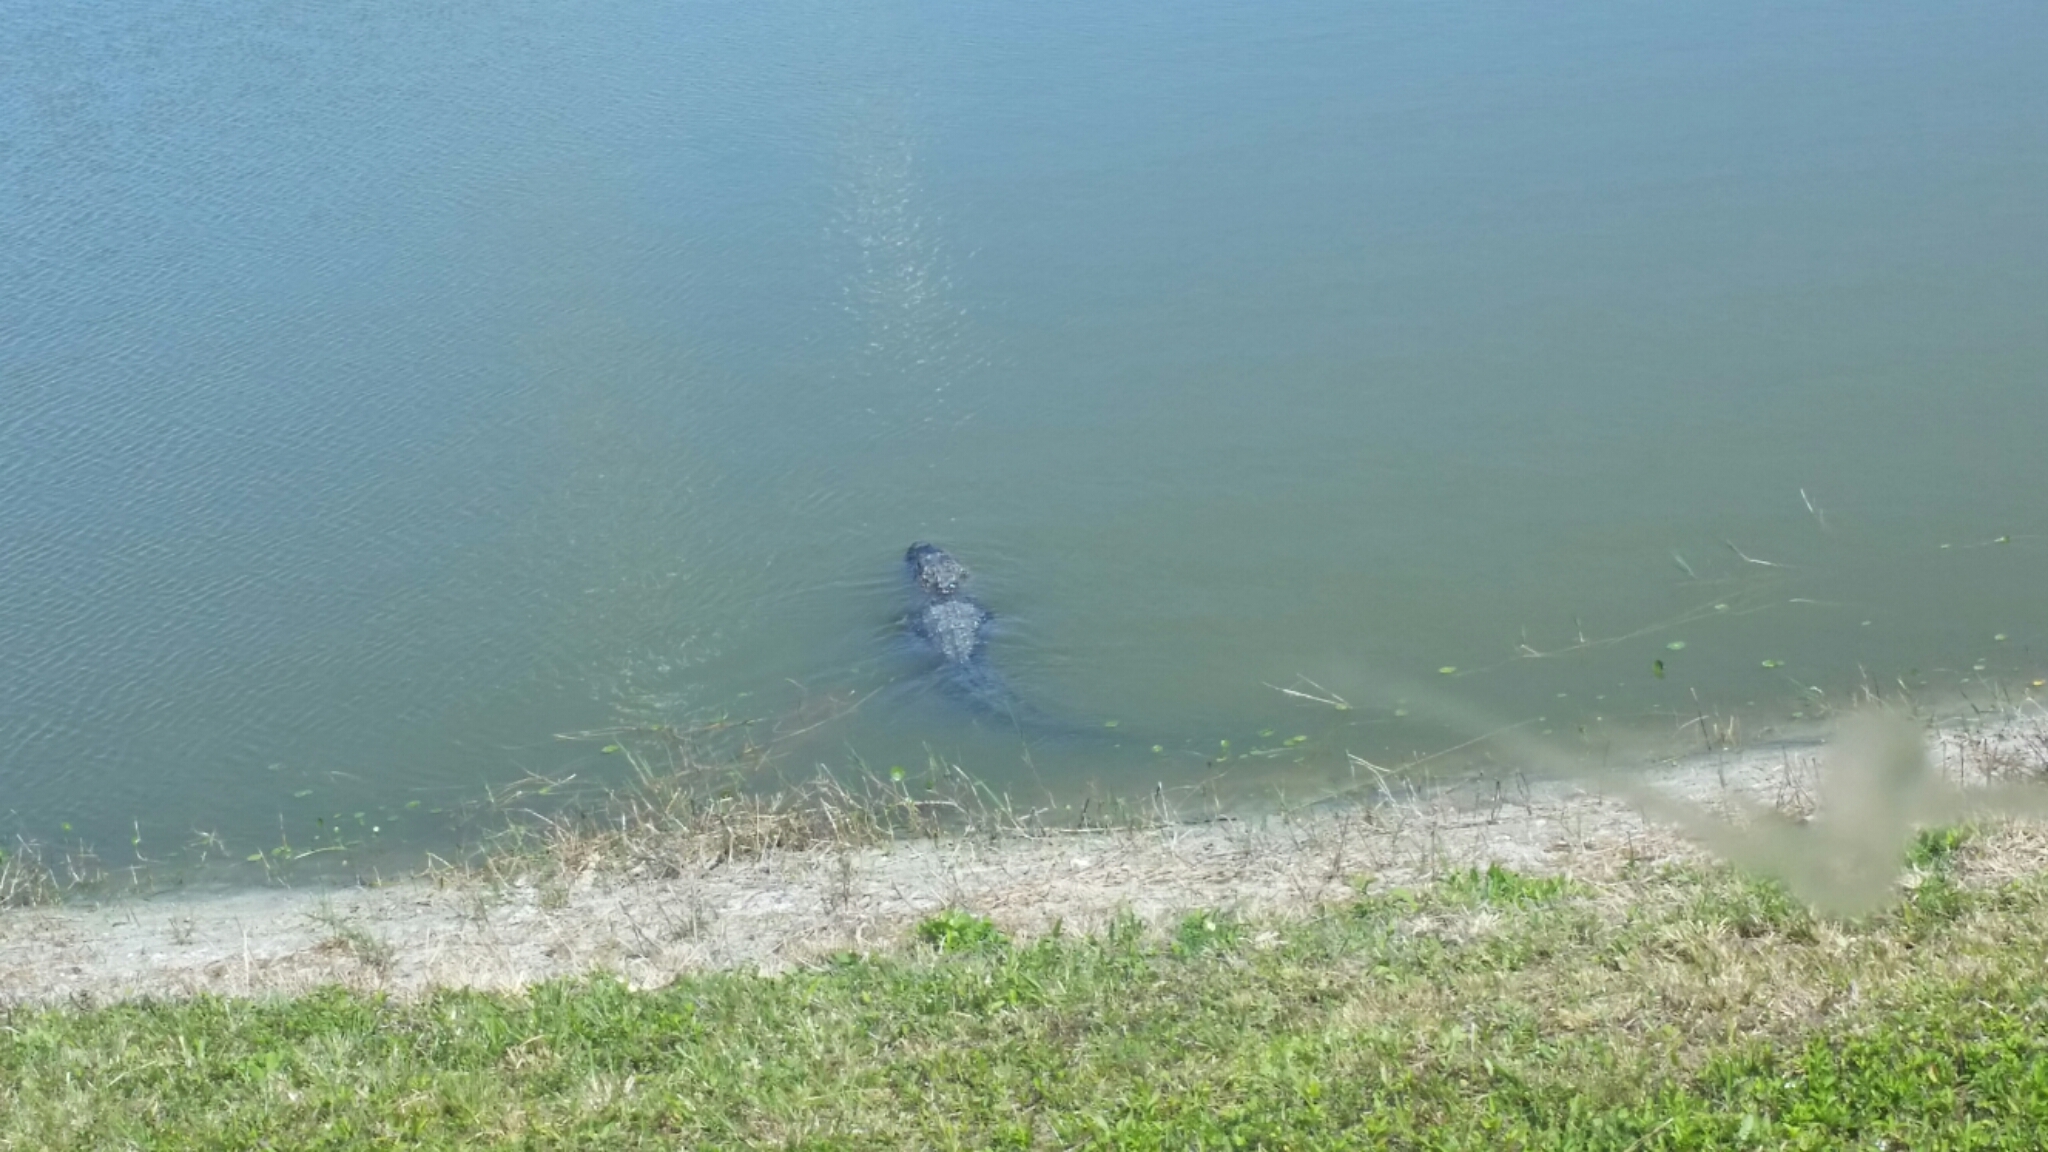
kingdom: Animalia
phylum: Chordata
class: Crocodylia
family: Alligatoridae
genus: Alligator
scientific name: Alligator mississippiensis
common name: American alligator
